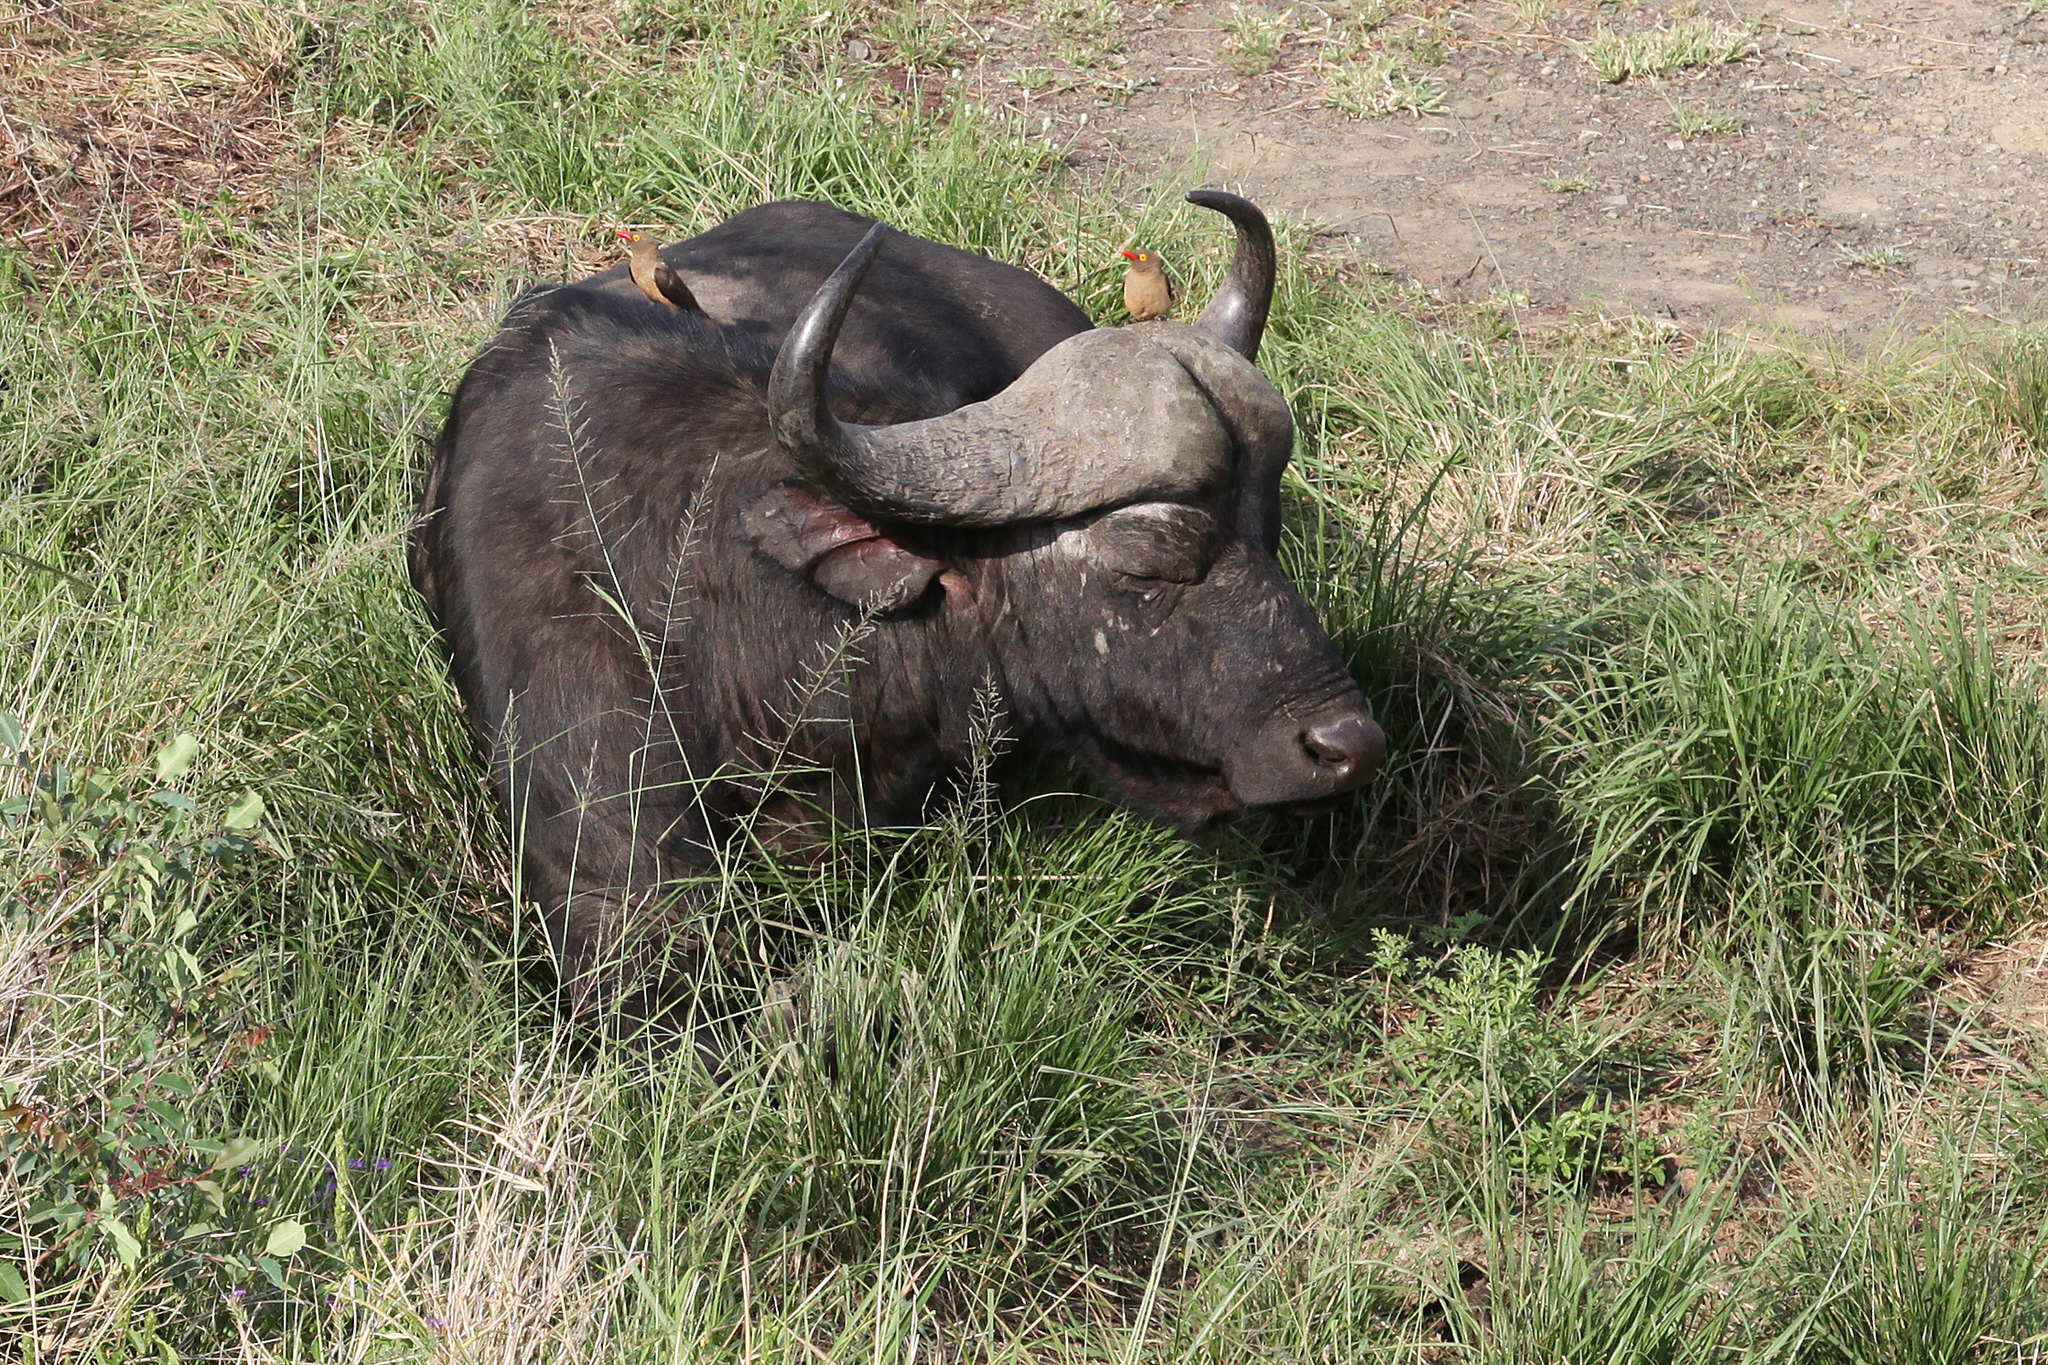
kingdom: Animalia
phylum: Chordata
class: Mammalia
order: Artiodactyla
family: Bovidae
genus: Syncerus
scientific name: Syncerus caffer
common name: African buffalo
